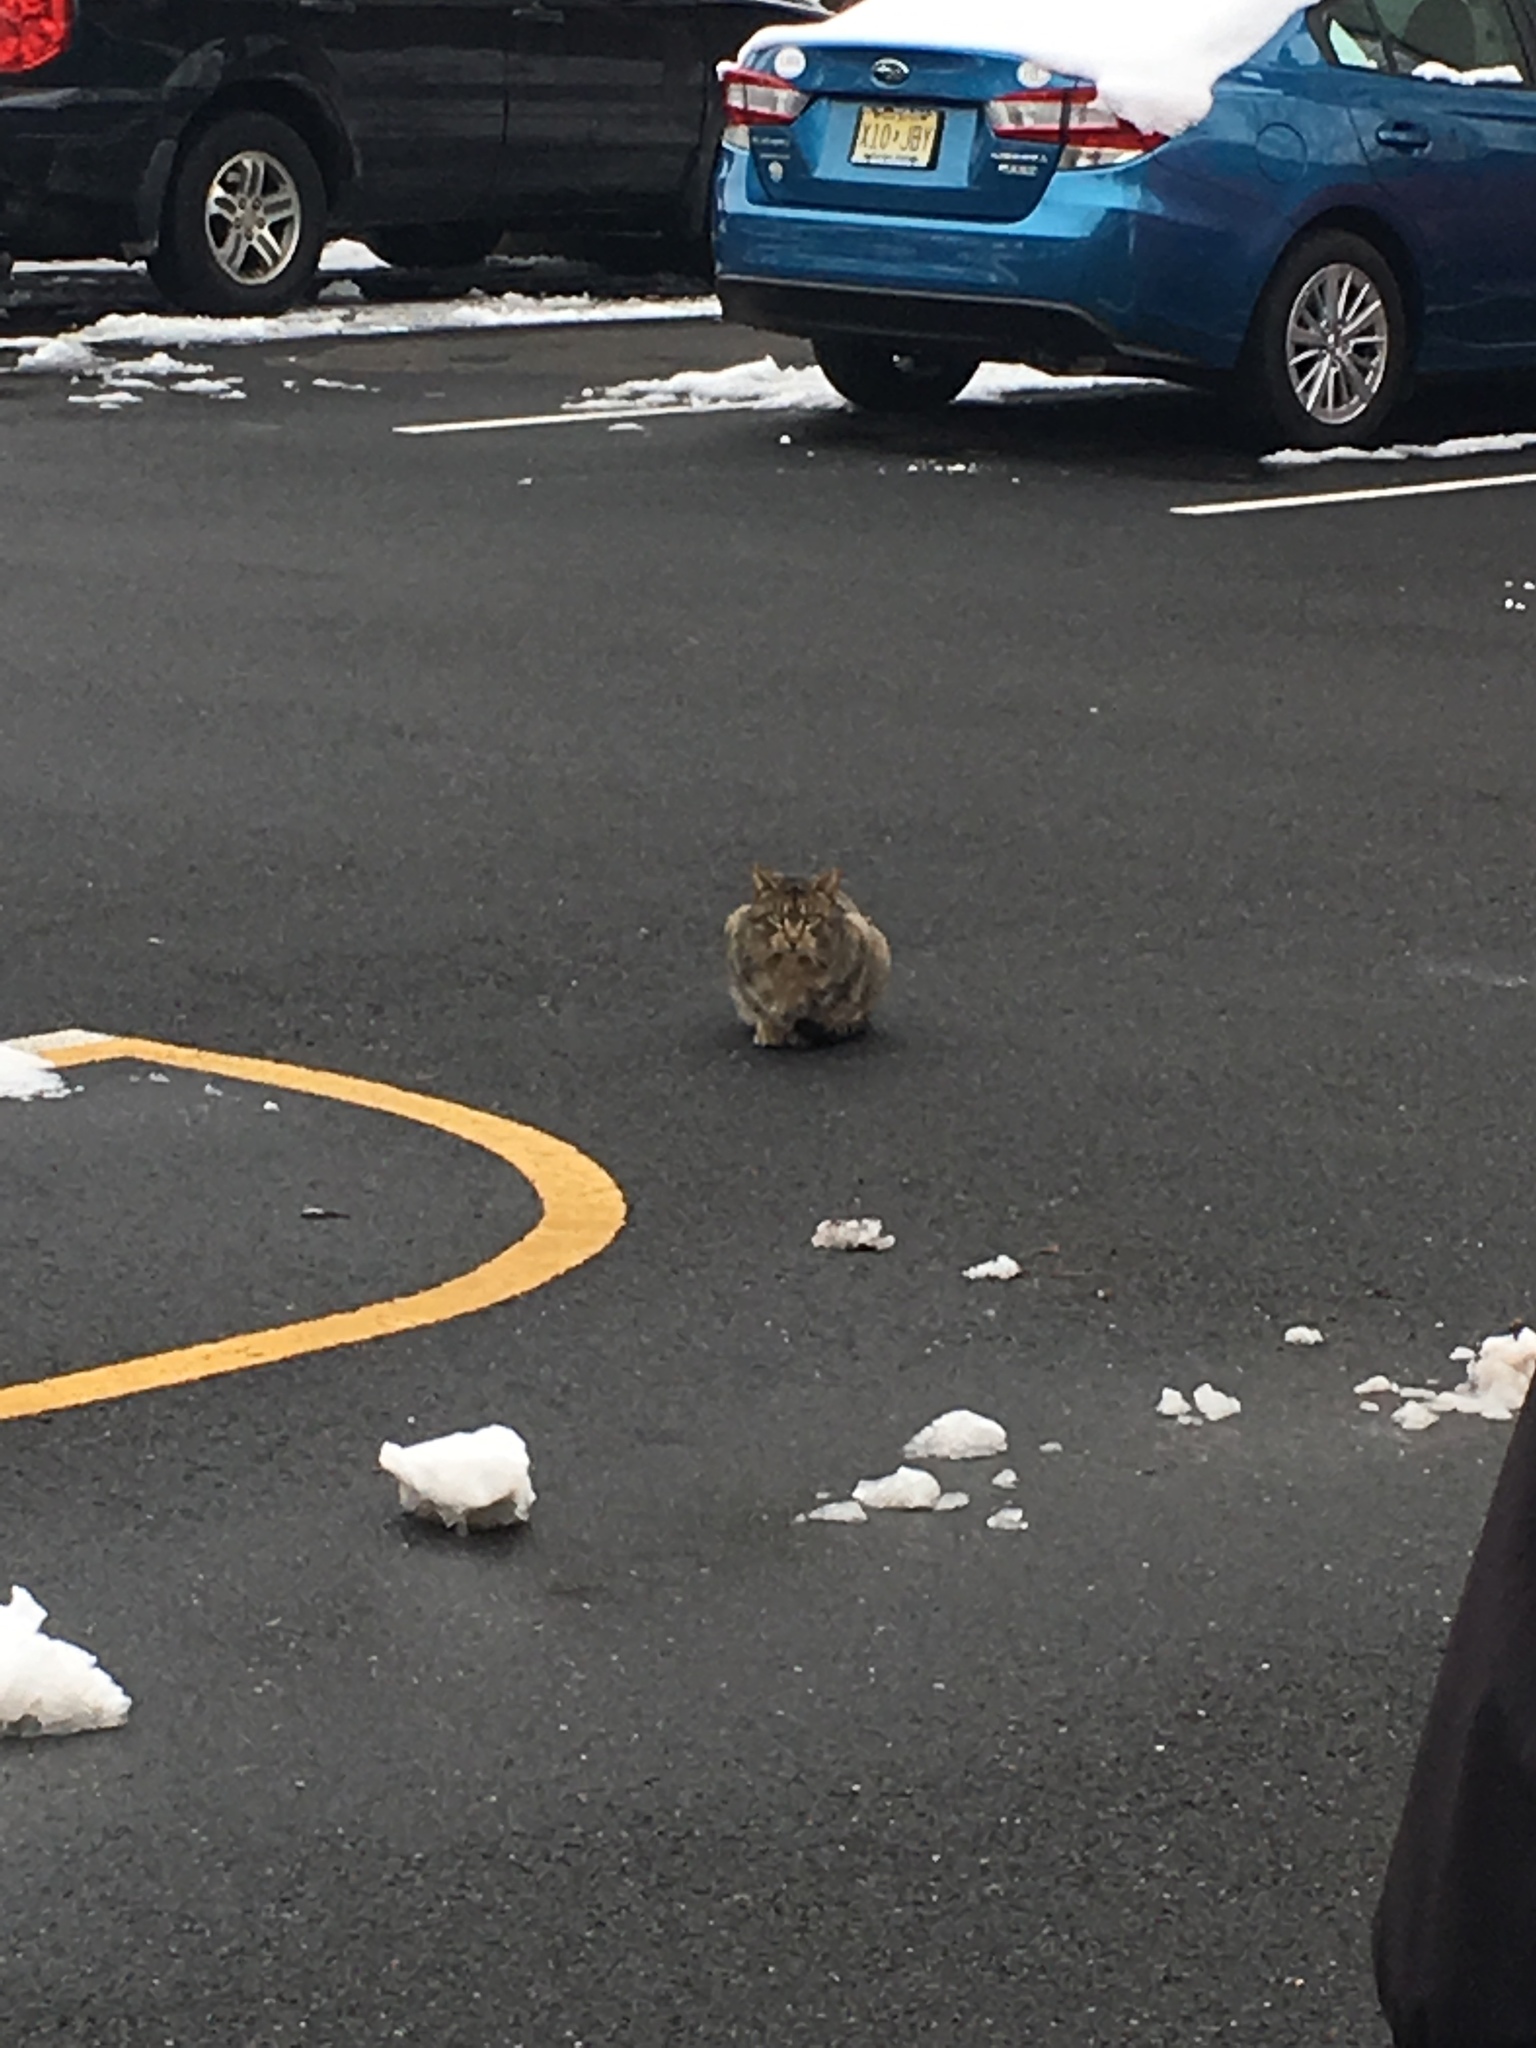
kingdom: Animalia
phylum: Chordata
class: Mammalia
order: Carnivora
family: Felidae
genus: Felis
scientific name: Felis catus
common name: Domestic cat
